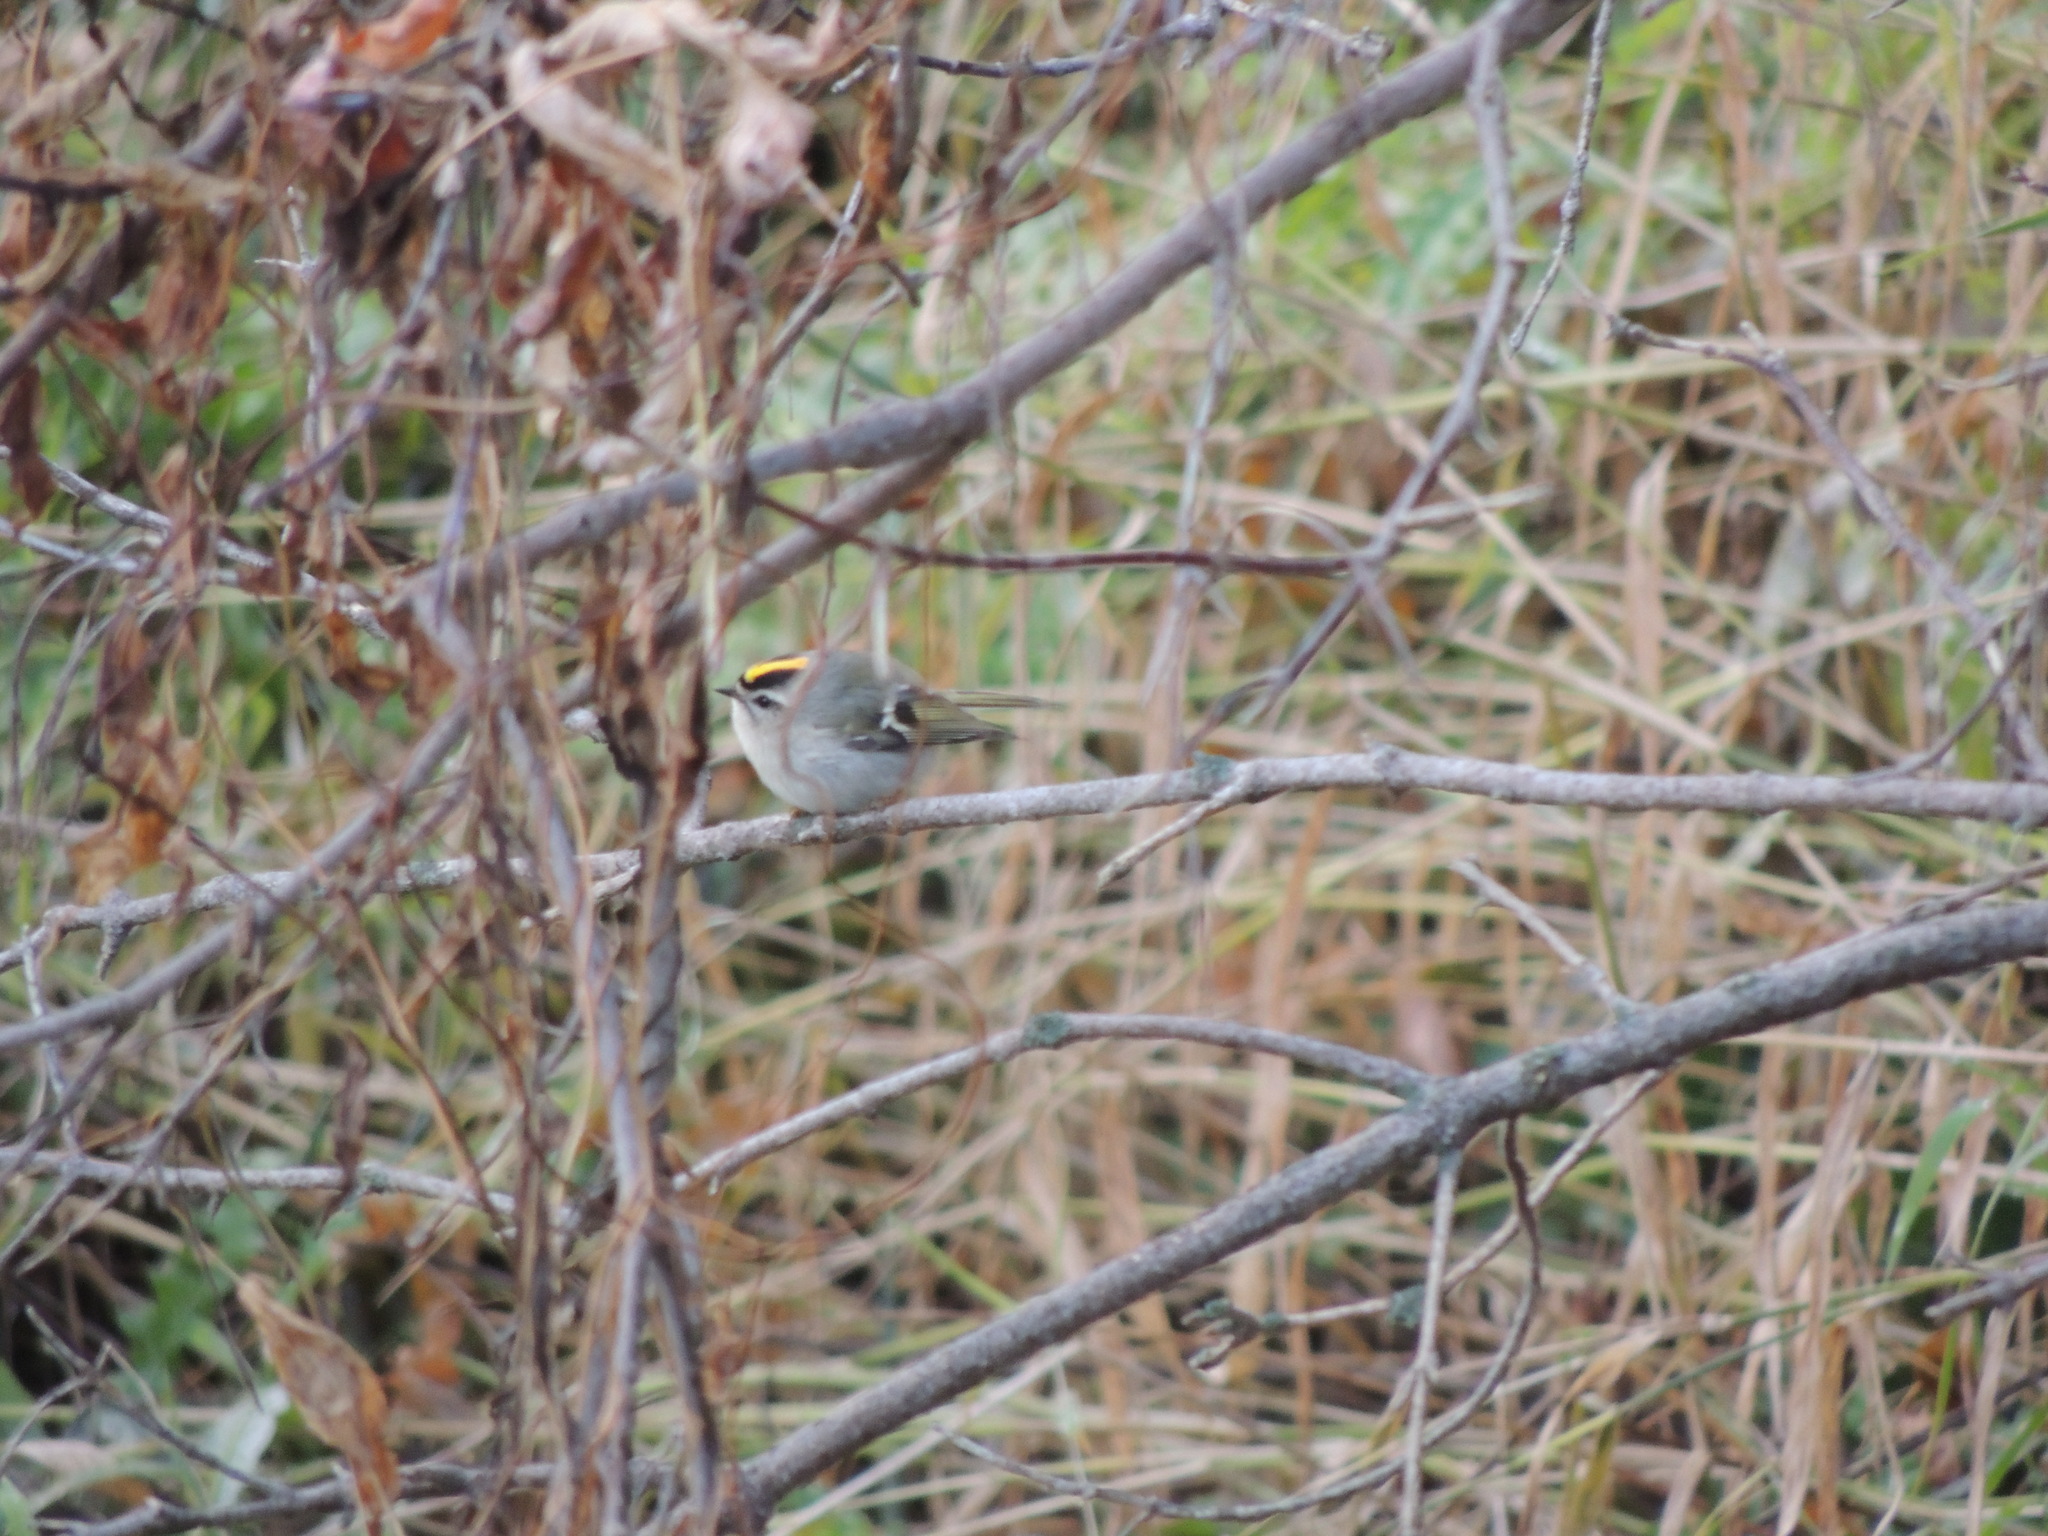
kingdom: Animalia
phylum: Chordata
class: Aves
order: Passeriformes
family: Regulidae
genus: Regulus
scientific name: Regulus satrapa
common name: Golden-crowned kinglet
